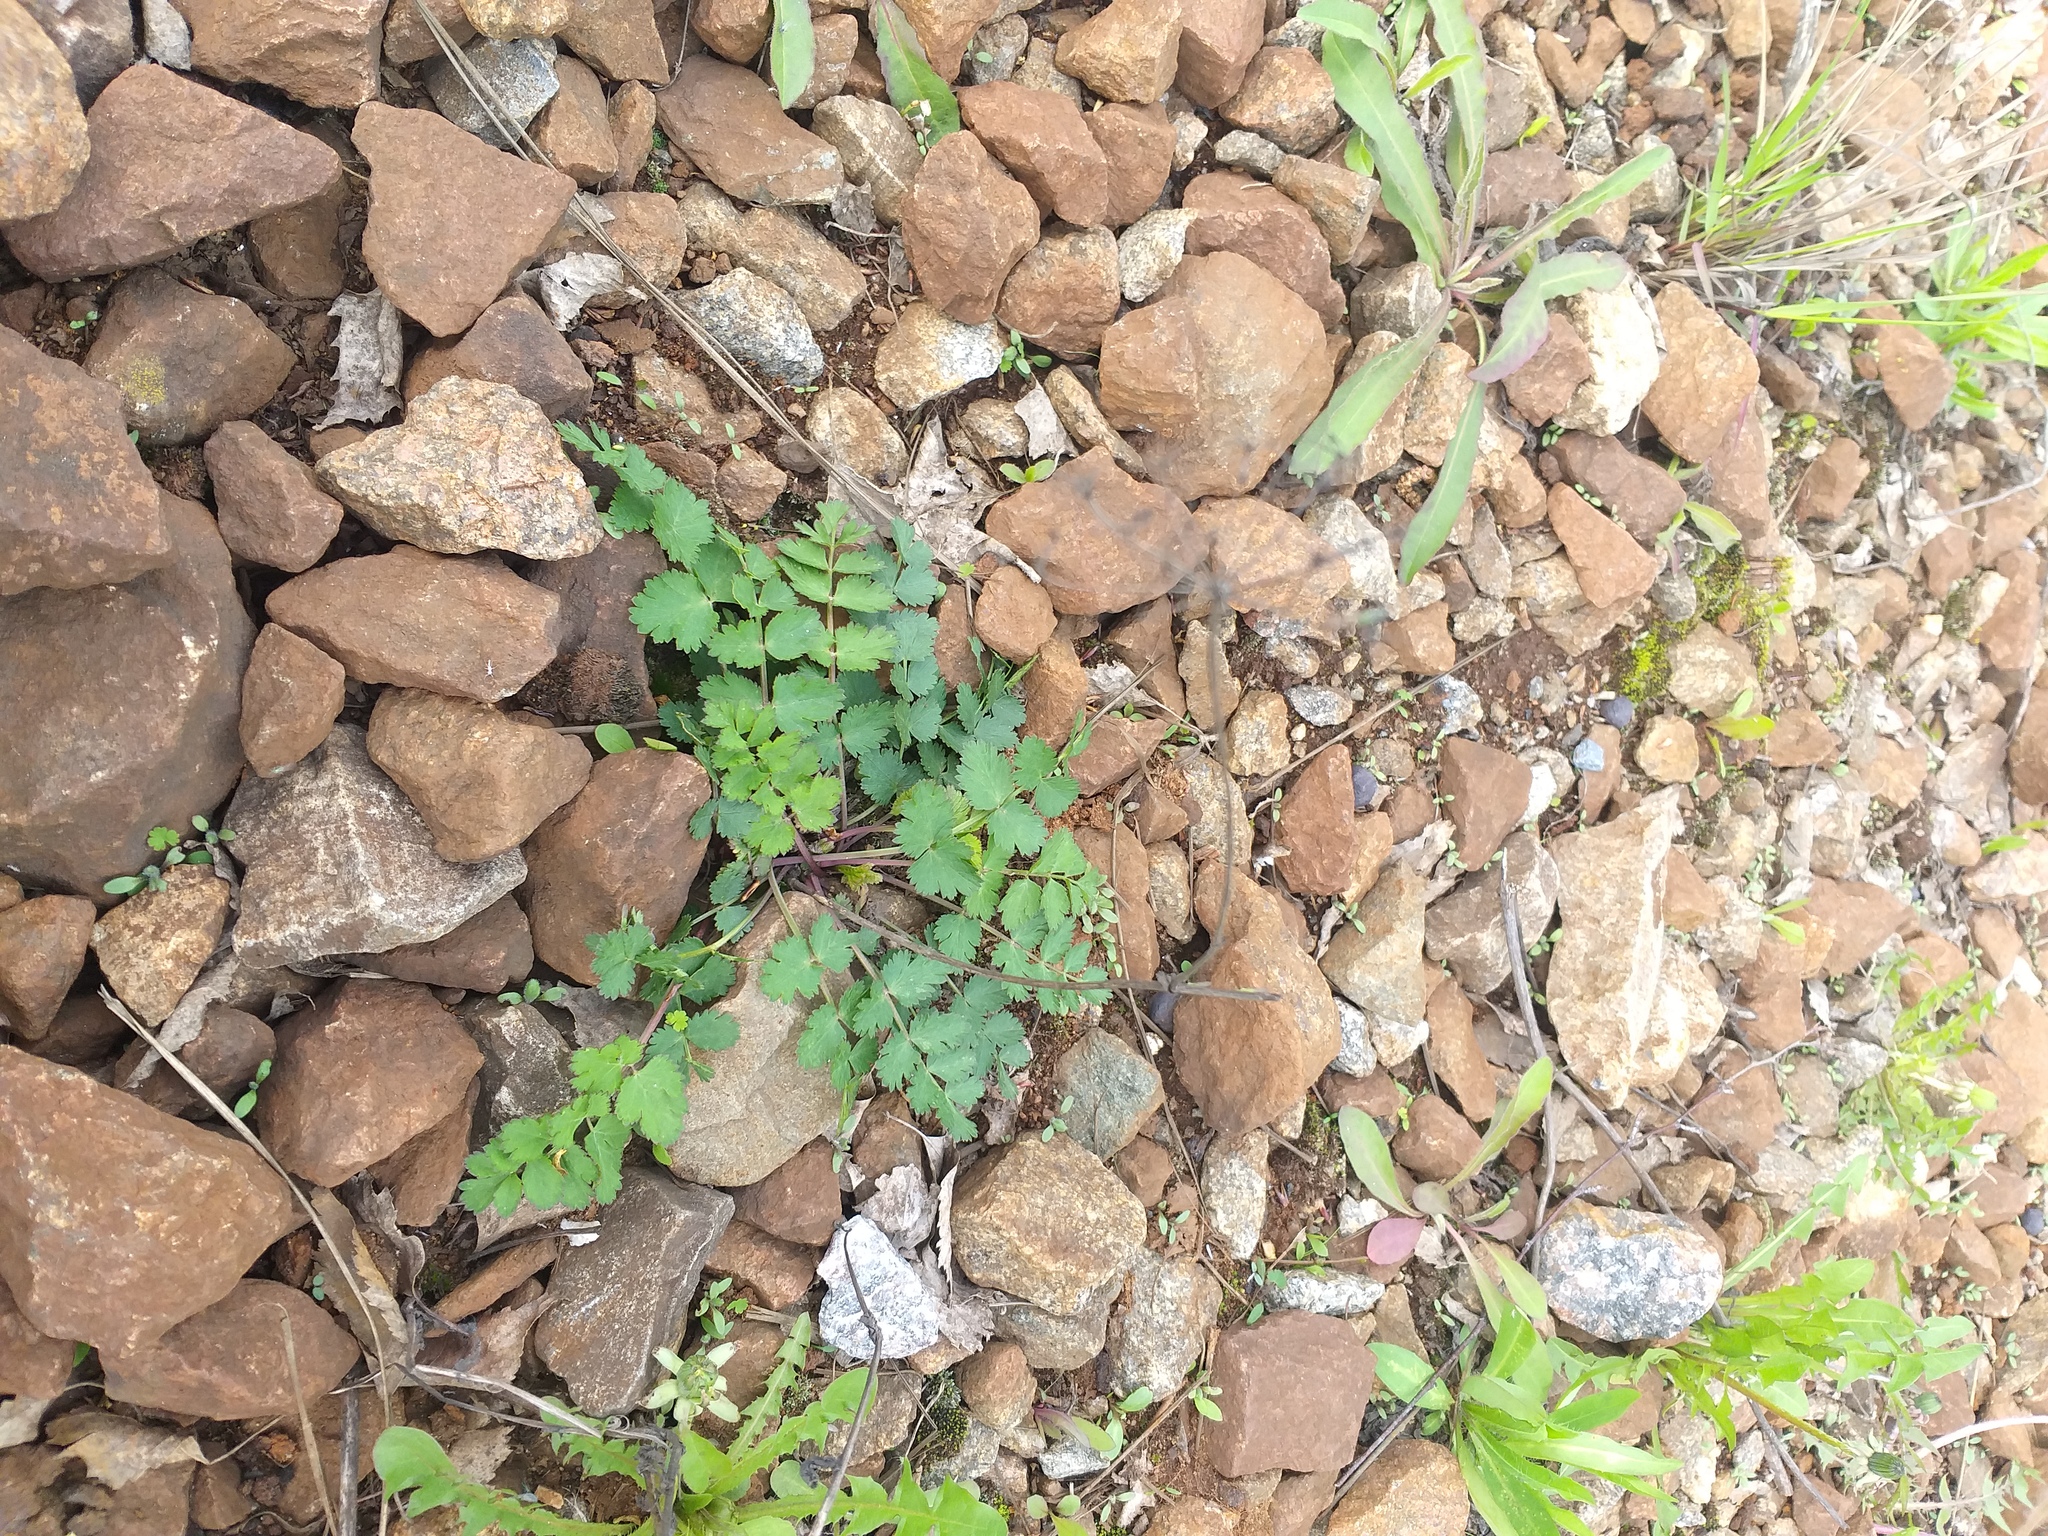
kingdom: Plantae
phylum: Tracheophyta
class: Magnoliopsida
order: Apiales
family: Apiaceae
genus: Pimpinella
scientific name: Pimpinella saxifraga
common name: Burnet-saxifrage
